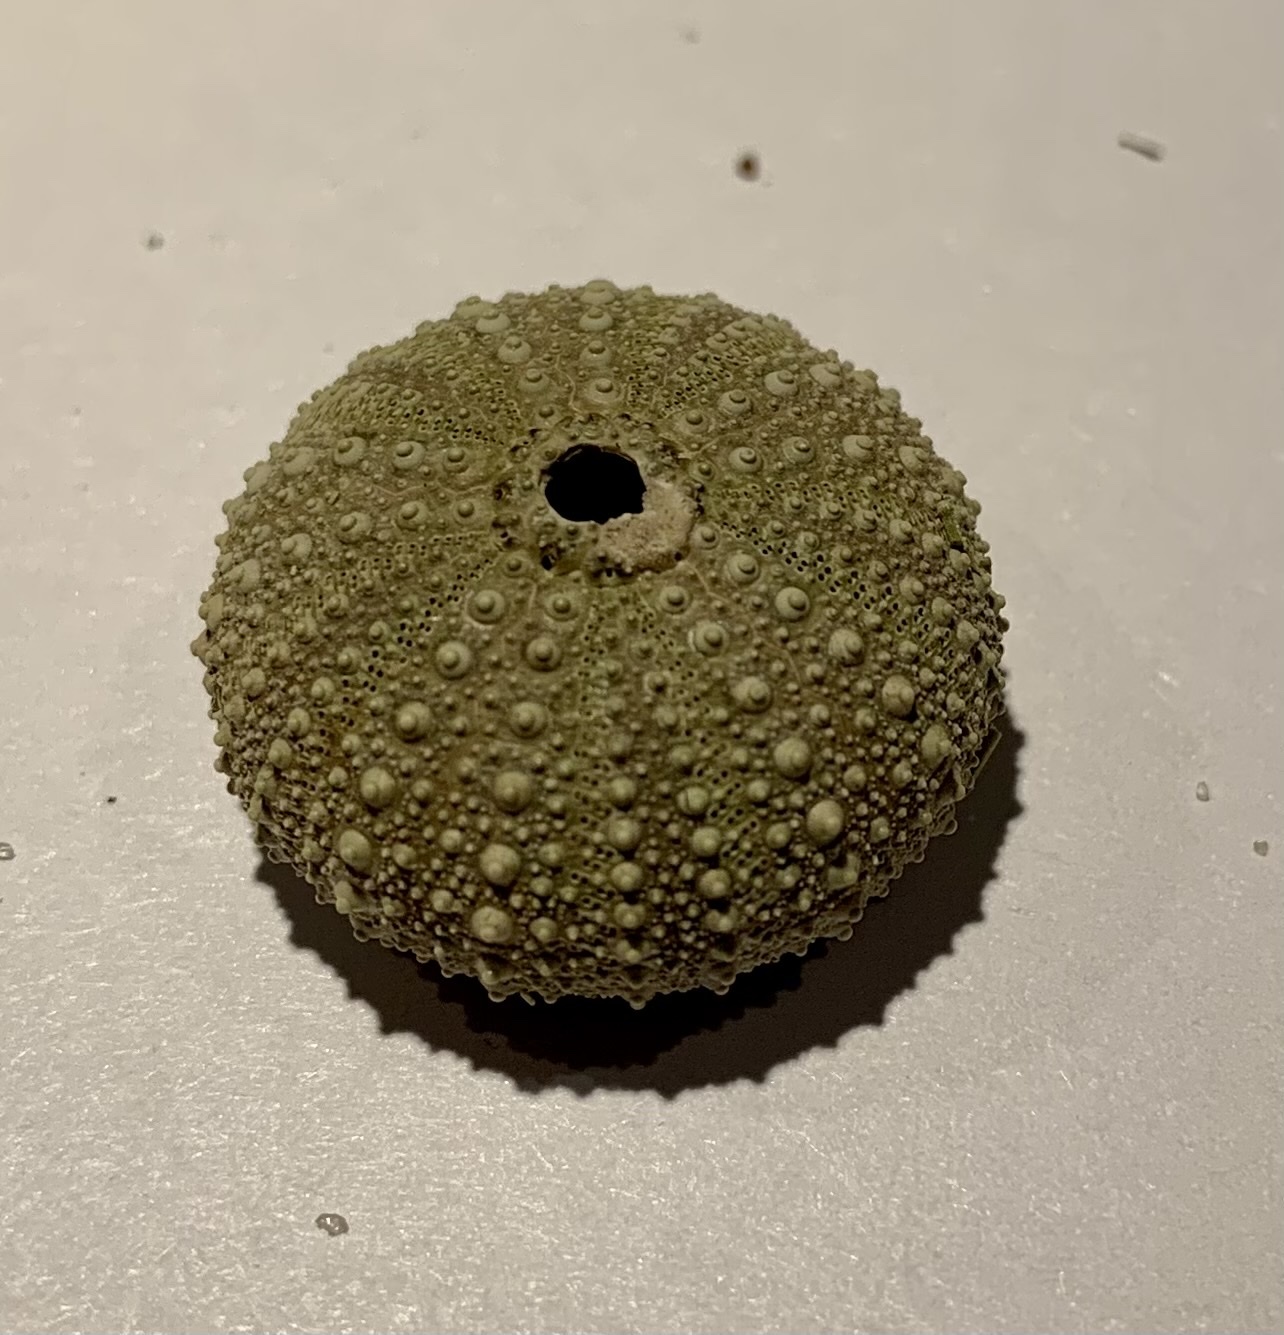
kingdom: Animalia
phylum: Echinodermata
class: Echinoidea
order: Camarodonta
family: Parechinidae
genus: Psammechinus
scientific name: Psammechinus miliaris
